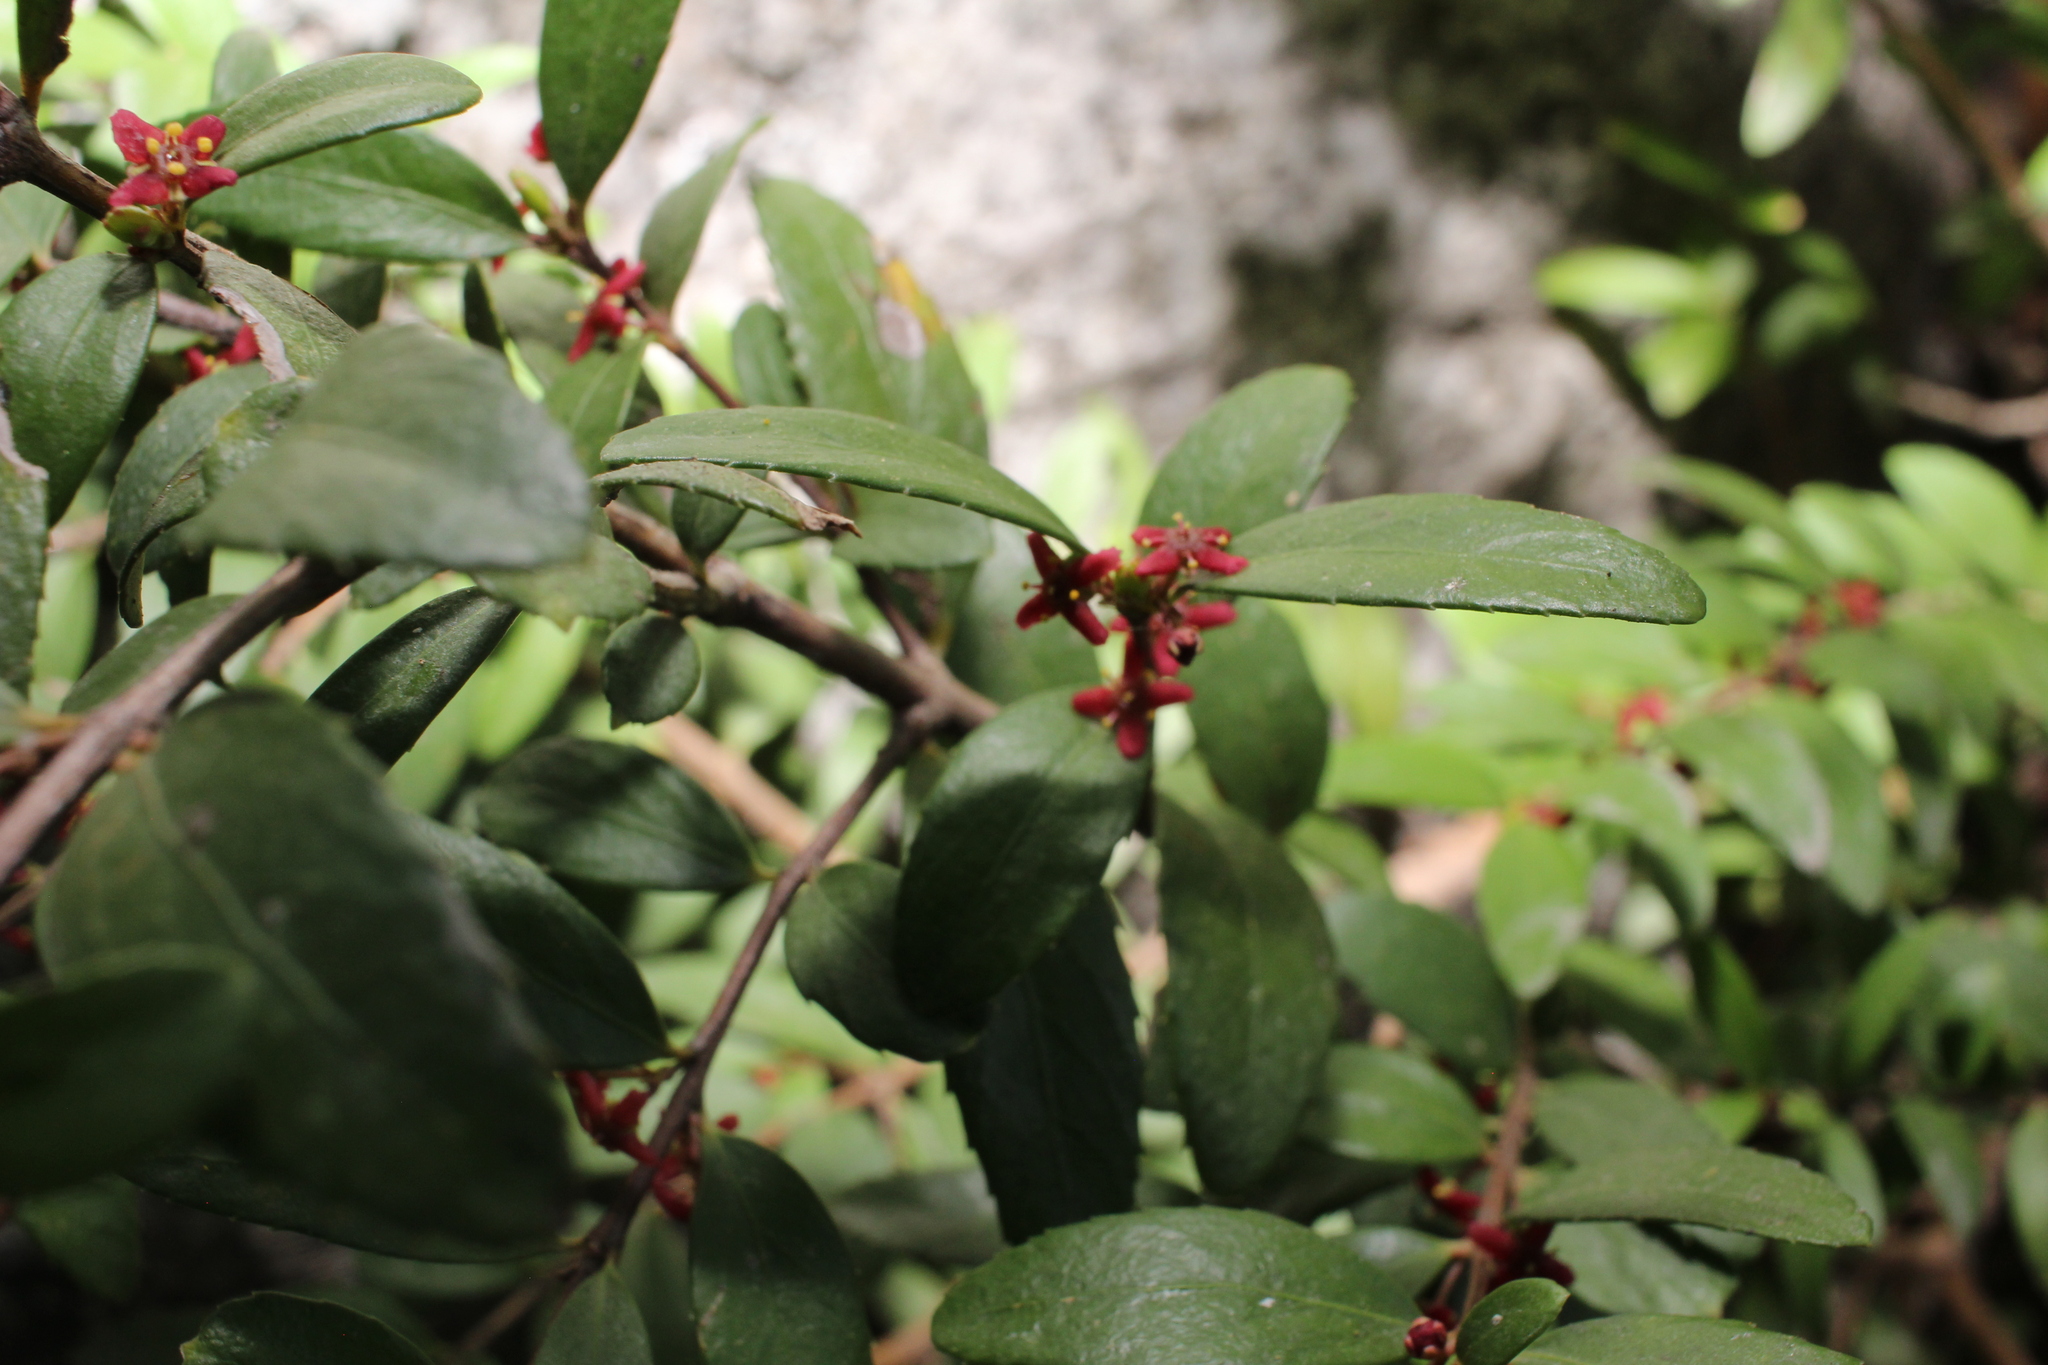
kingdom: Plantae
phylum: Tracheophyta
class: Magnoliopsida
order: Celastrales
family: Celastraceae
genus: Paxistima
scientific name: Paxistima myrsinites
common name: Mountain-lover
